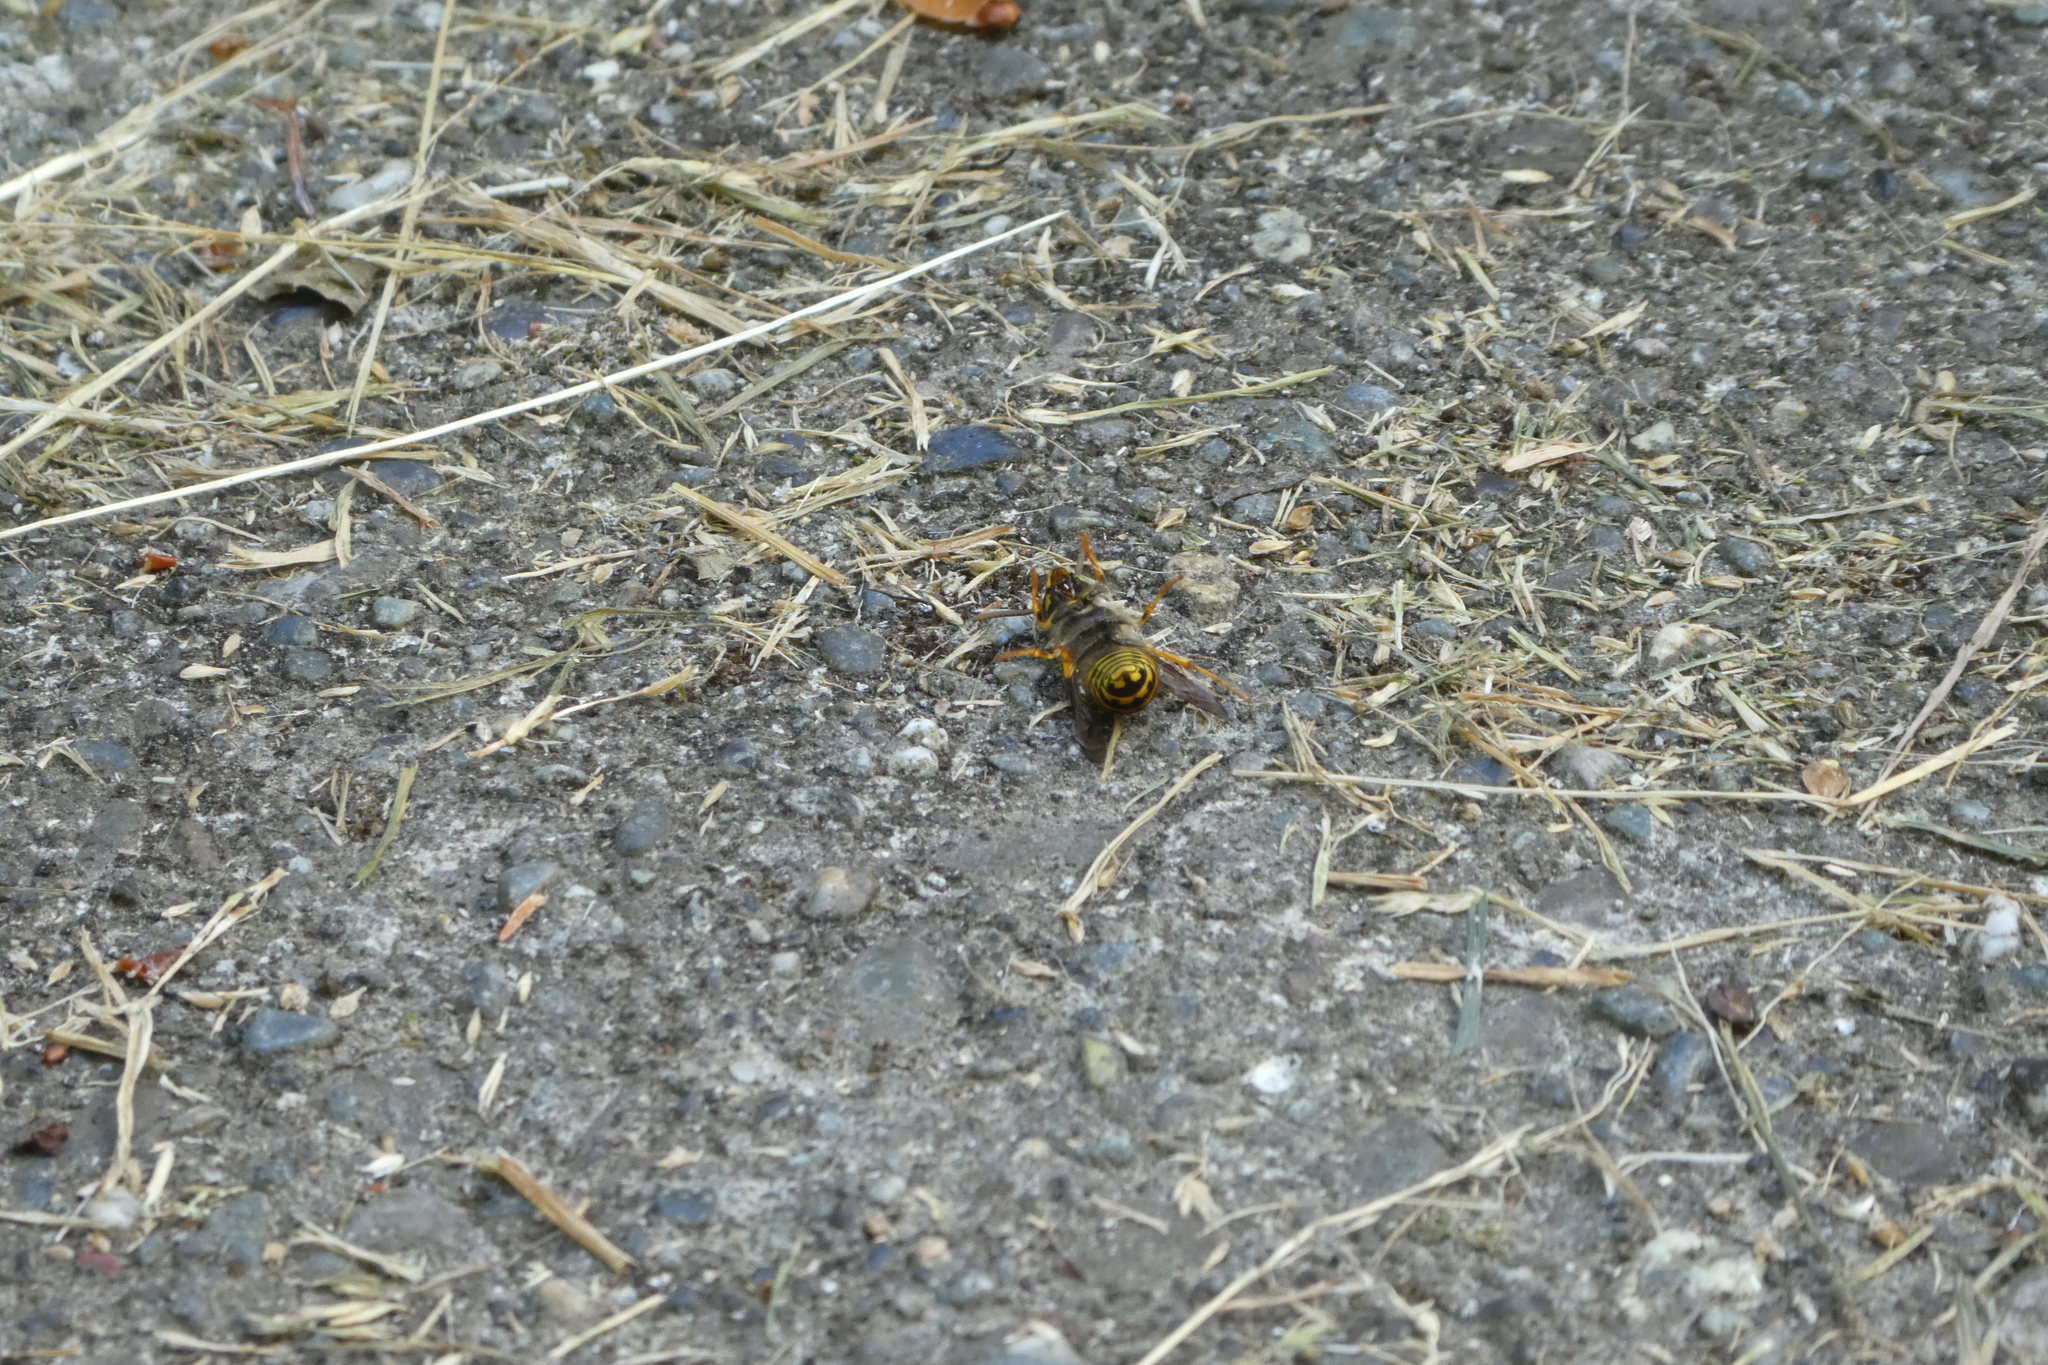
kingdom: Animalia
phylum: Arthropoda
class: Insecta
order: Hymenoptera
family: Vespidae
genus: Dolichovespula
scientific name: Dolichovespula arenaria
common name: Aerial yellowjacket
